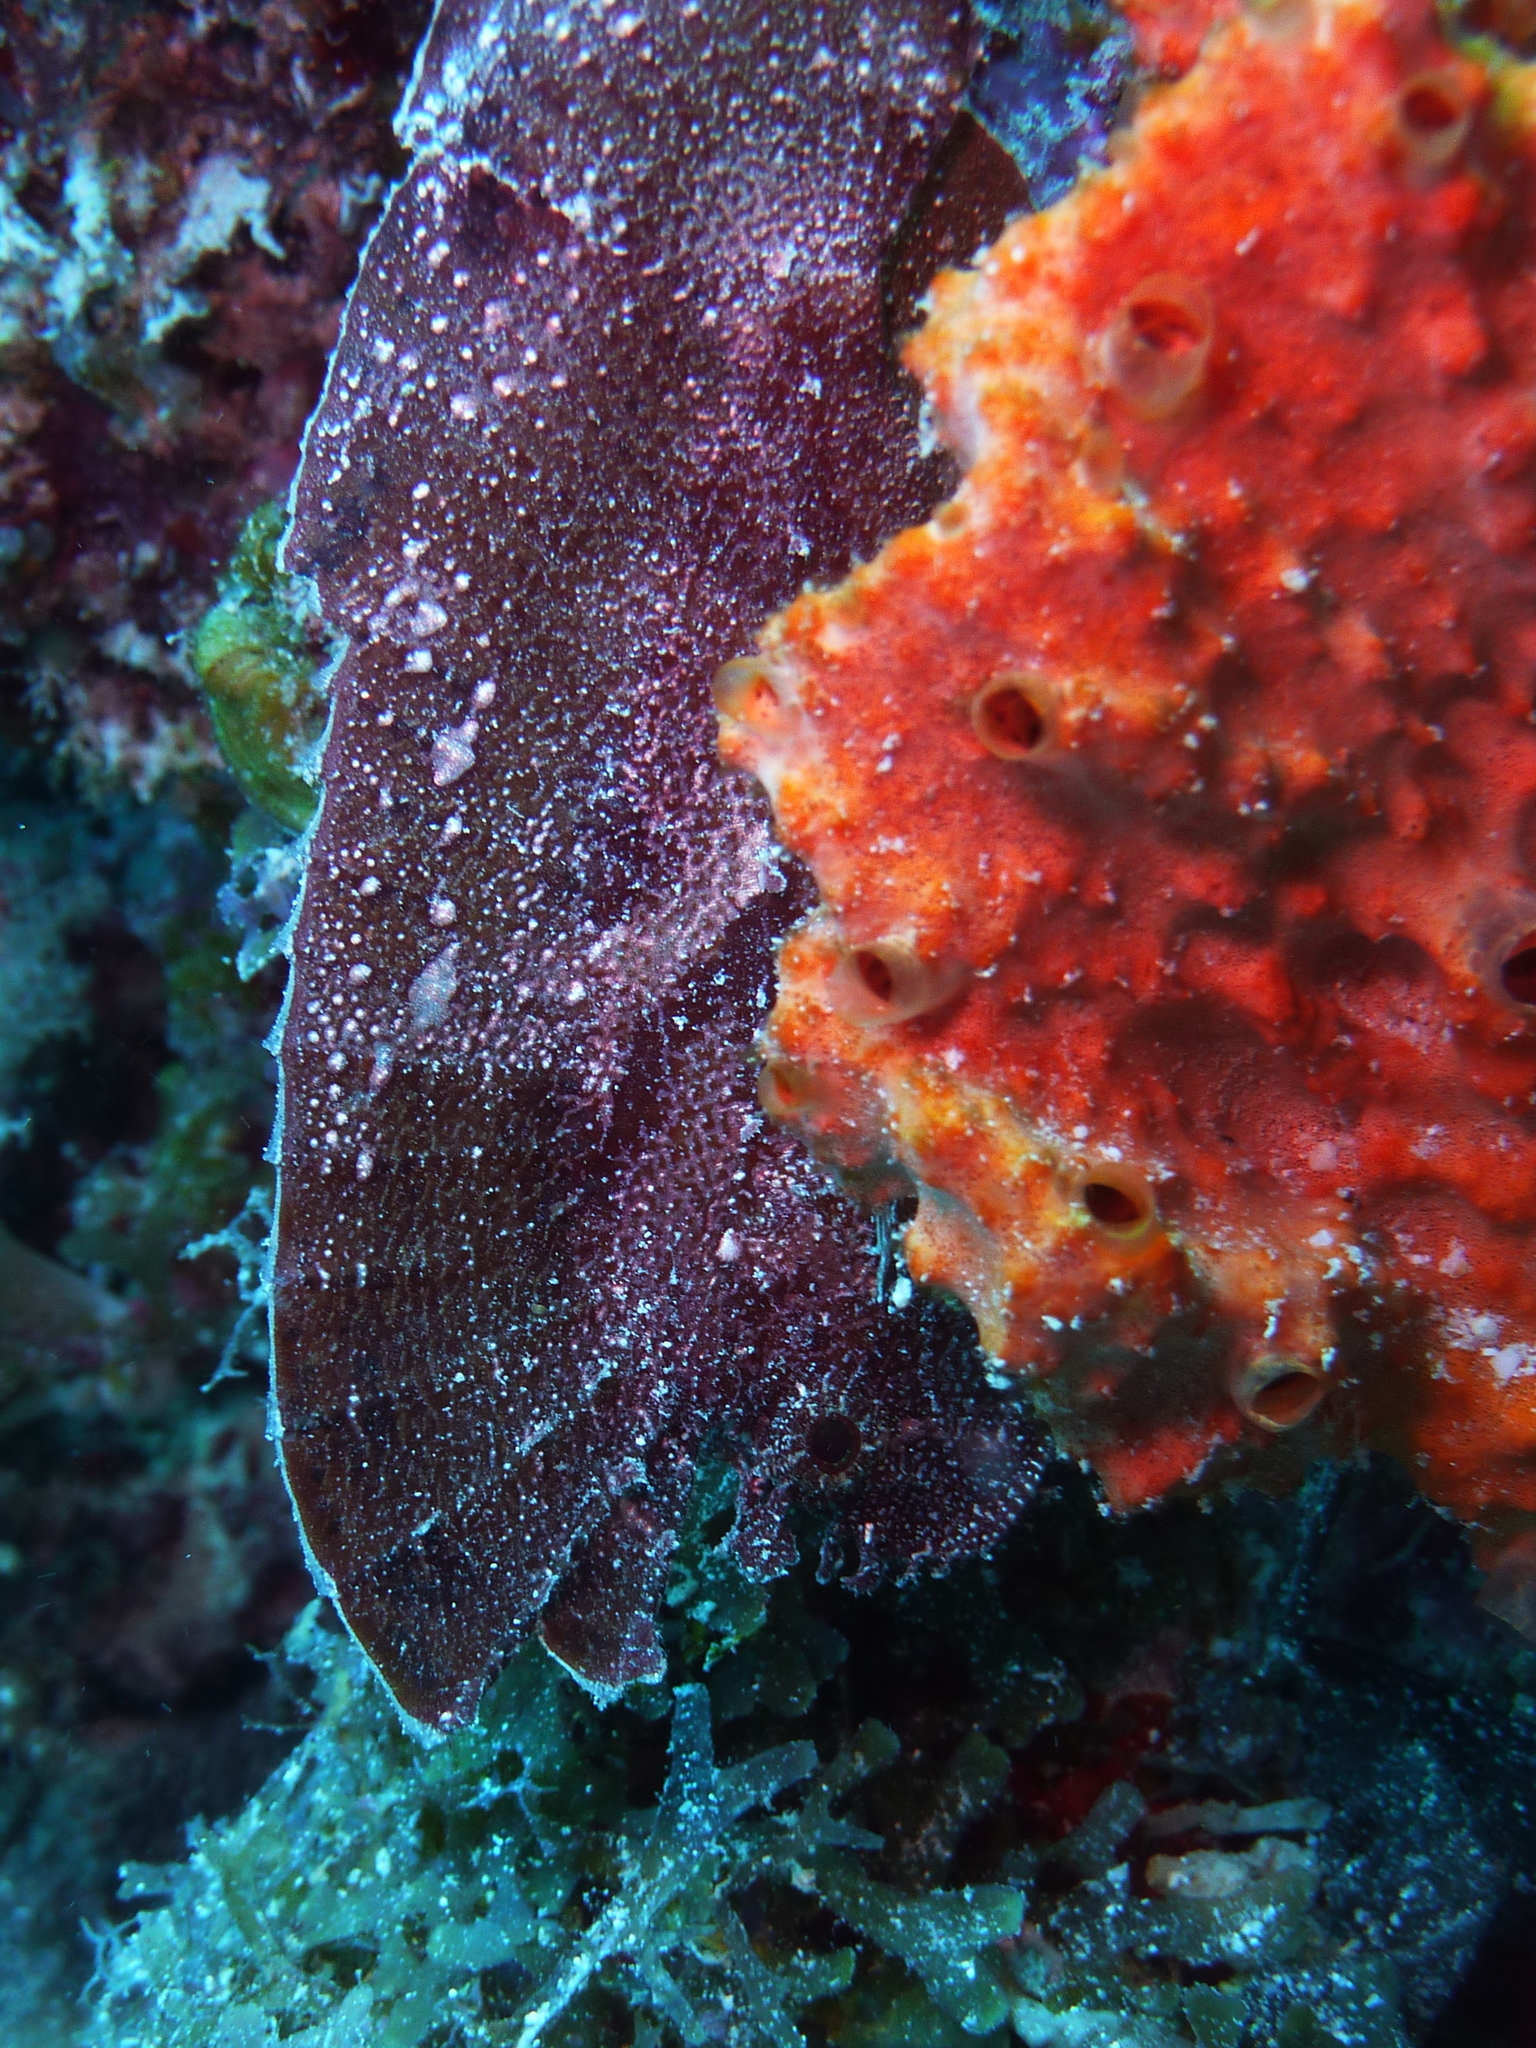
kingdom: Animalia
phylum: Chordata
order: Scorpaeniformes
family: Scorpaenidae
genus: Taenianotus
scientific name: Taenianotus triacanthus
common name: Leaf scorpionfish
